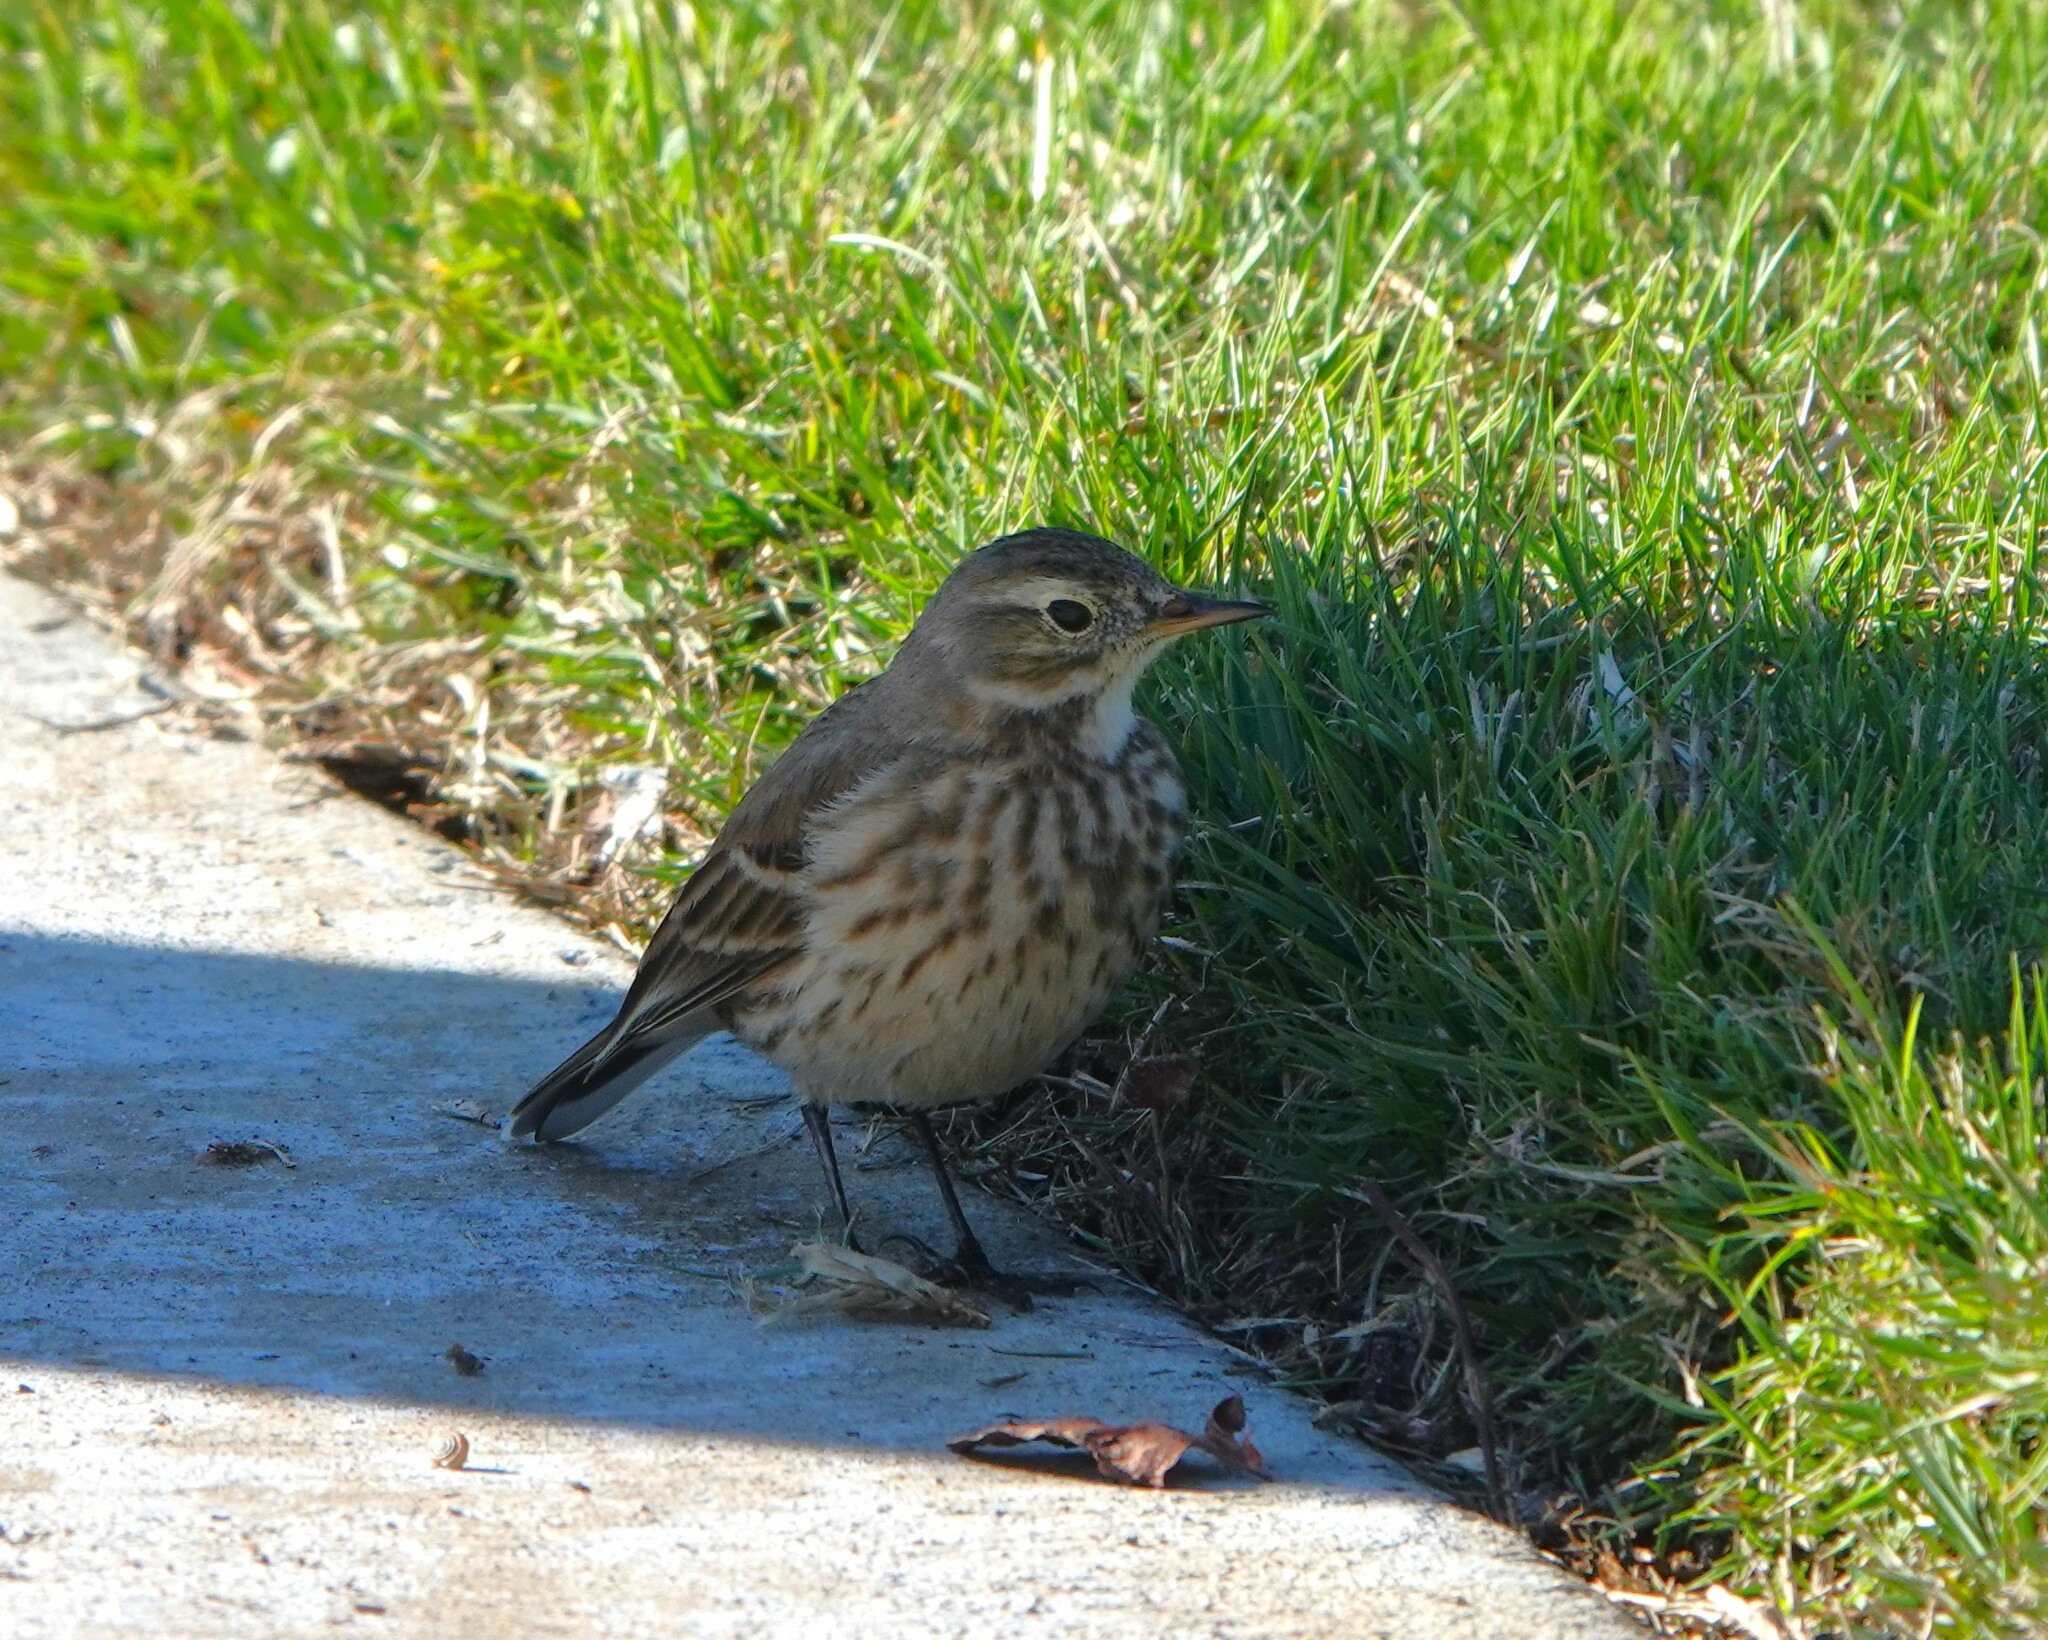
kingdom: Animalia
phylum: Chordata
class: Aves
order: Passeriformes
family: Motacillidae
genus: Anthus
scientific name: Anthus rubescens
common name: Buff-bellied pipit
